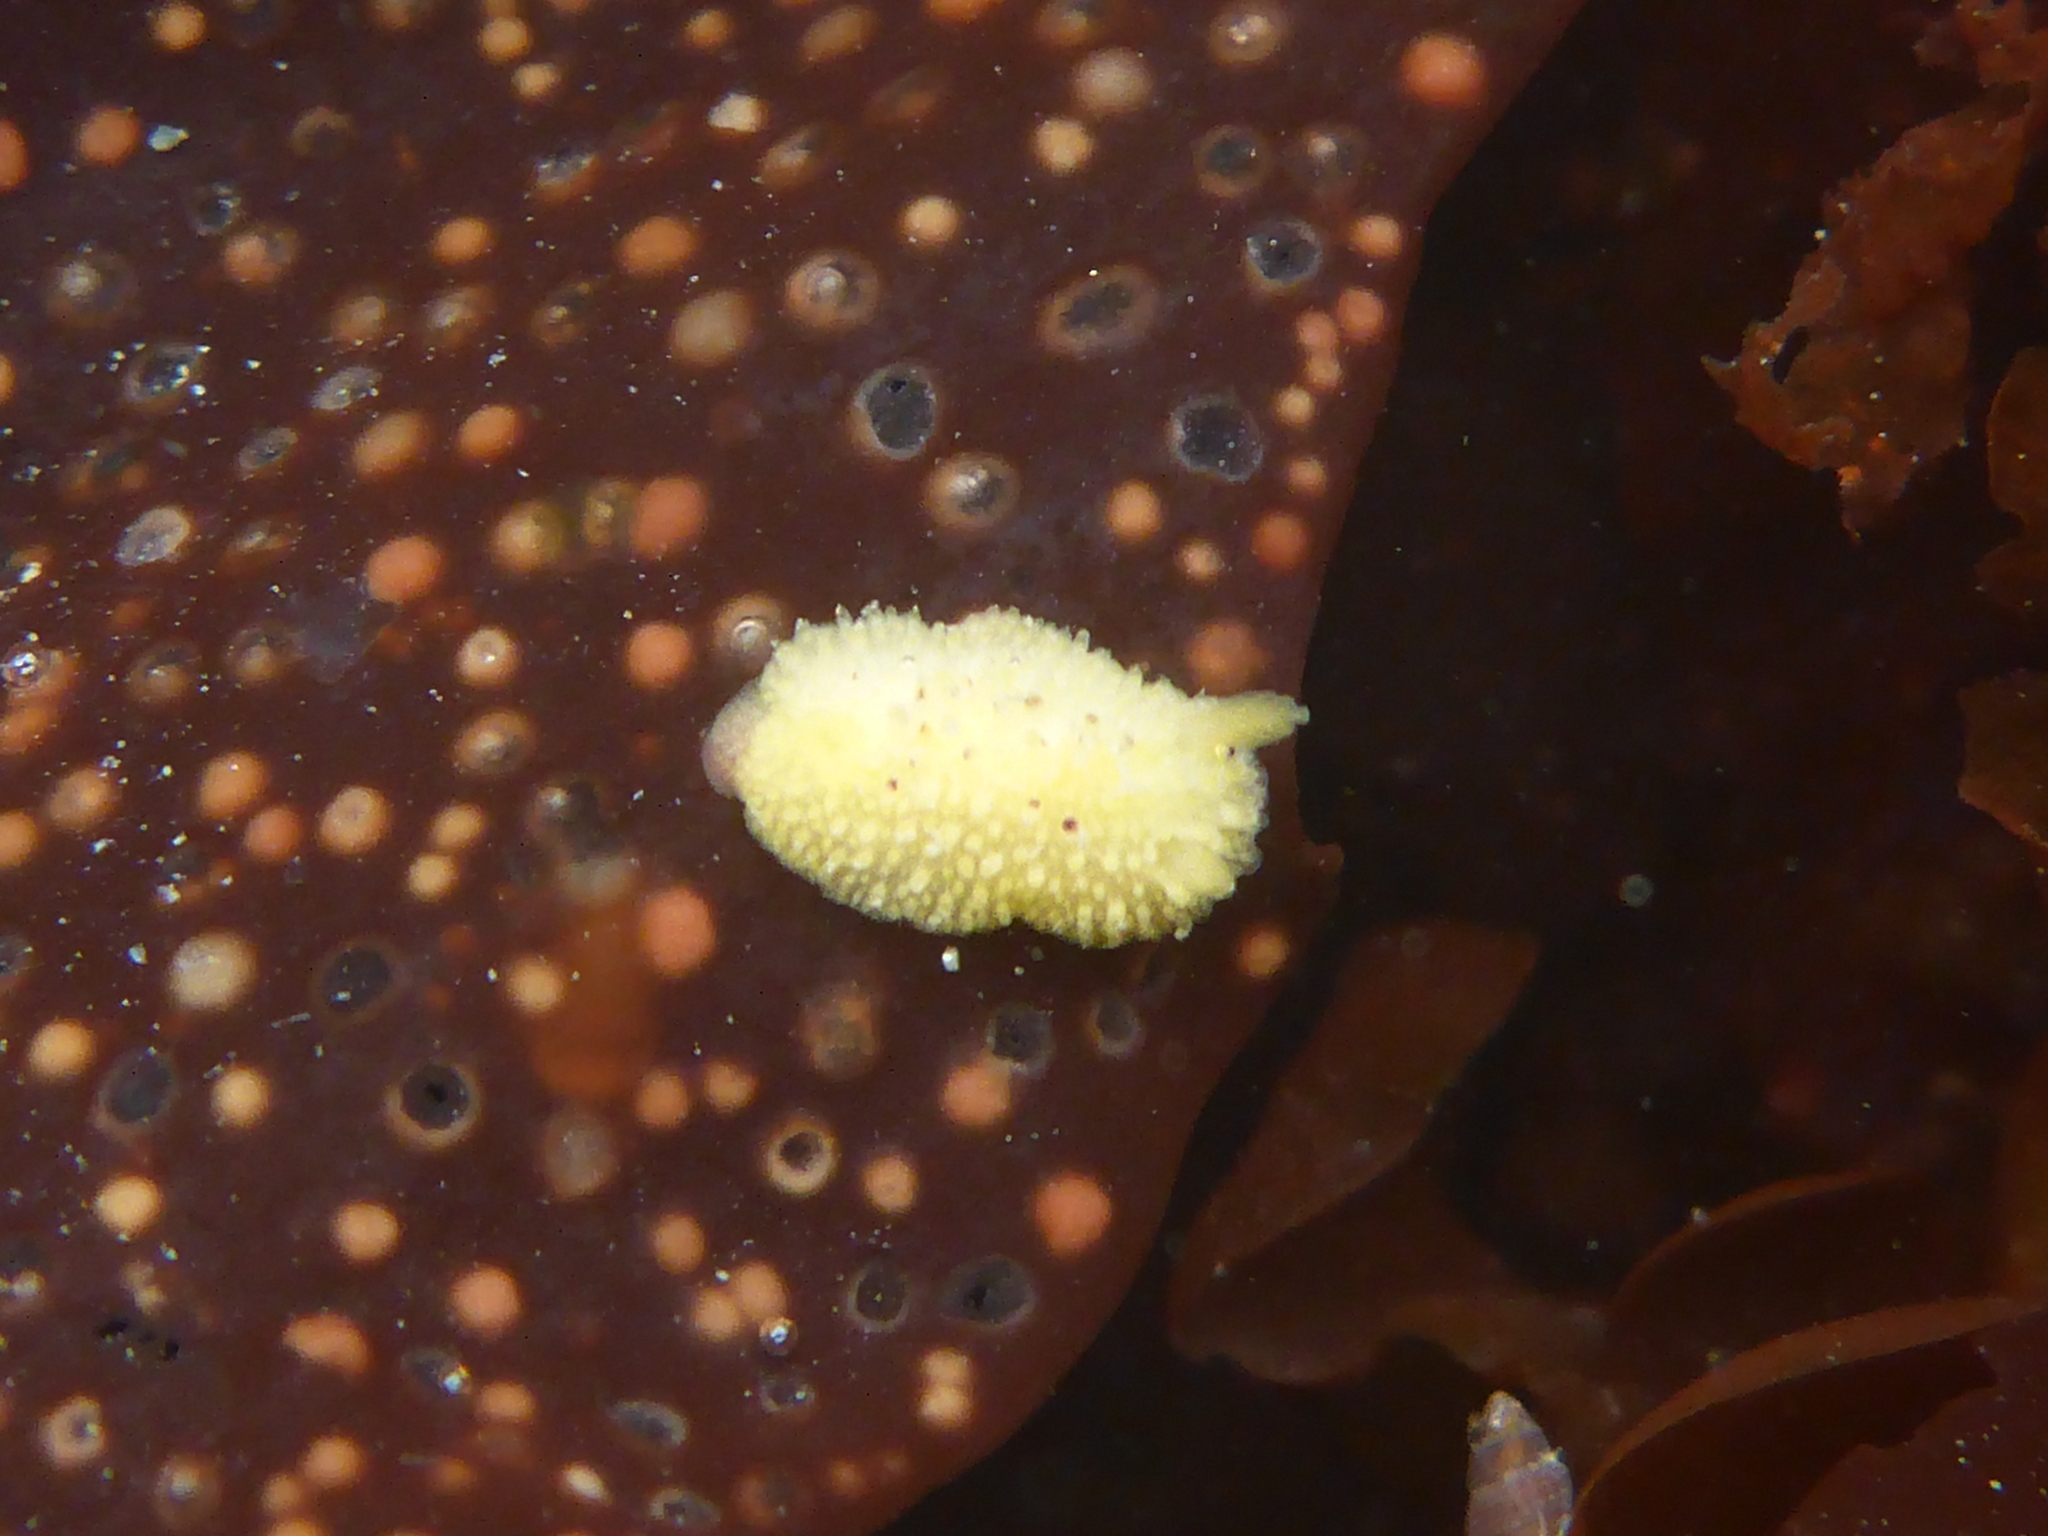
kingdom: Animalia
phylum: Mollusca
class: Gastropoda
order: Nudibranchia
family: Dorididae
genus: Doris
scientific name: Doris montereyensis
